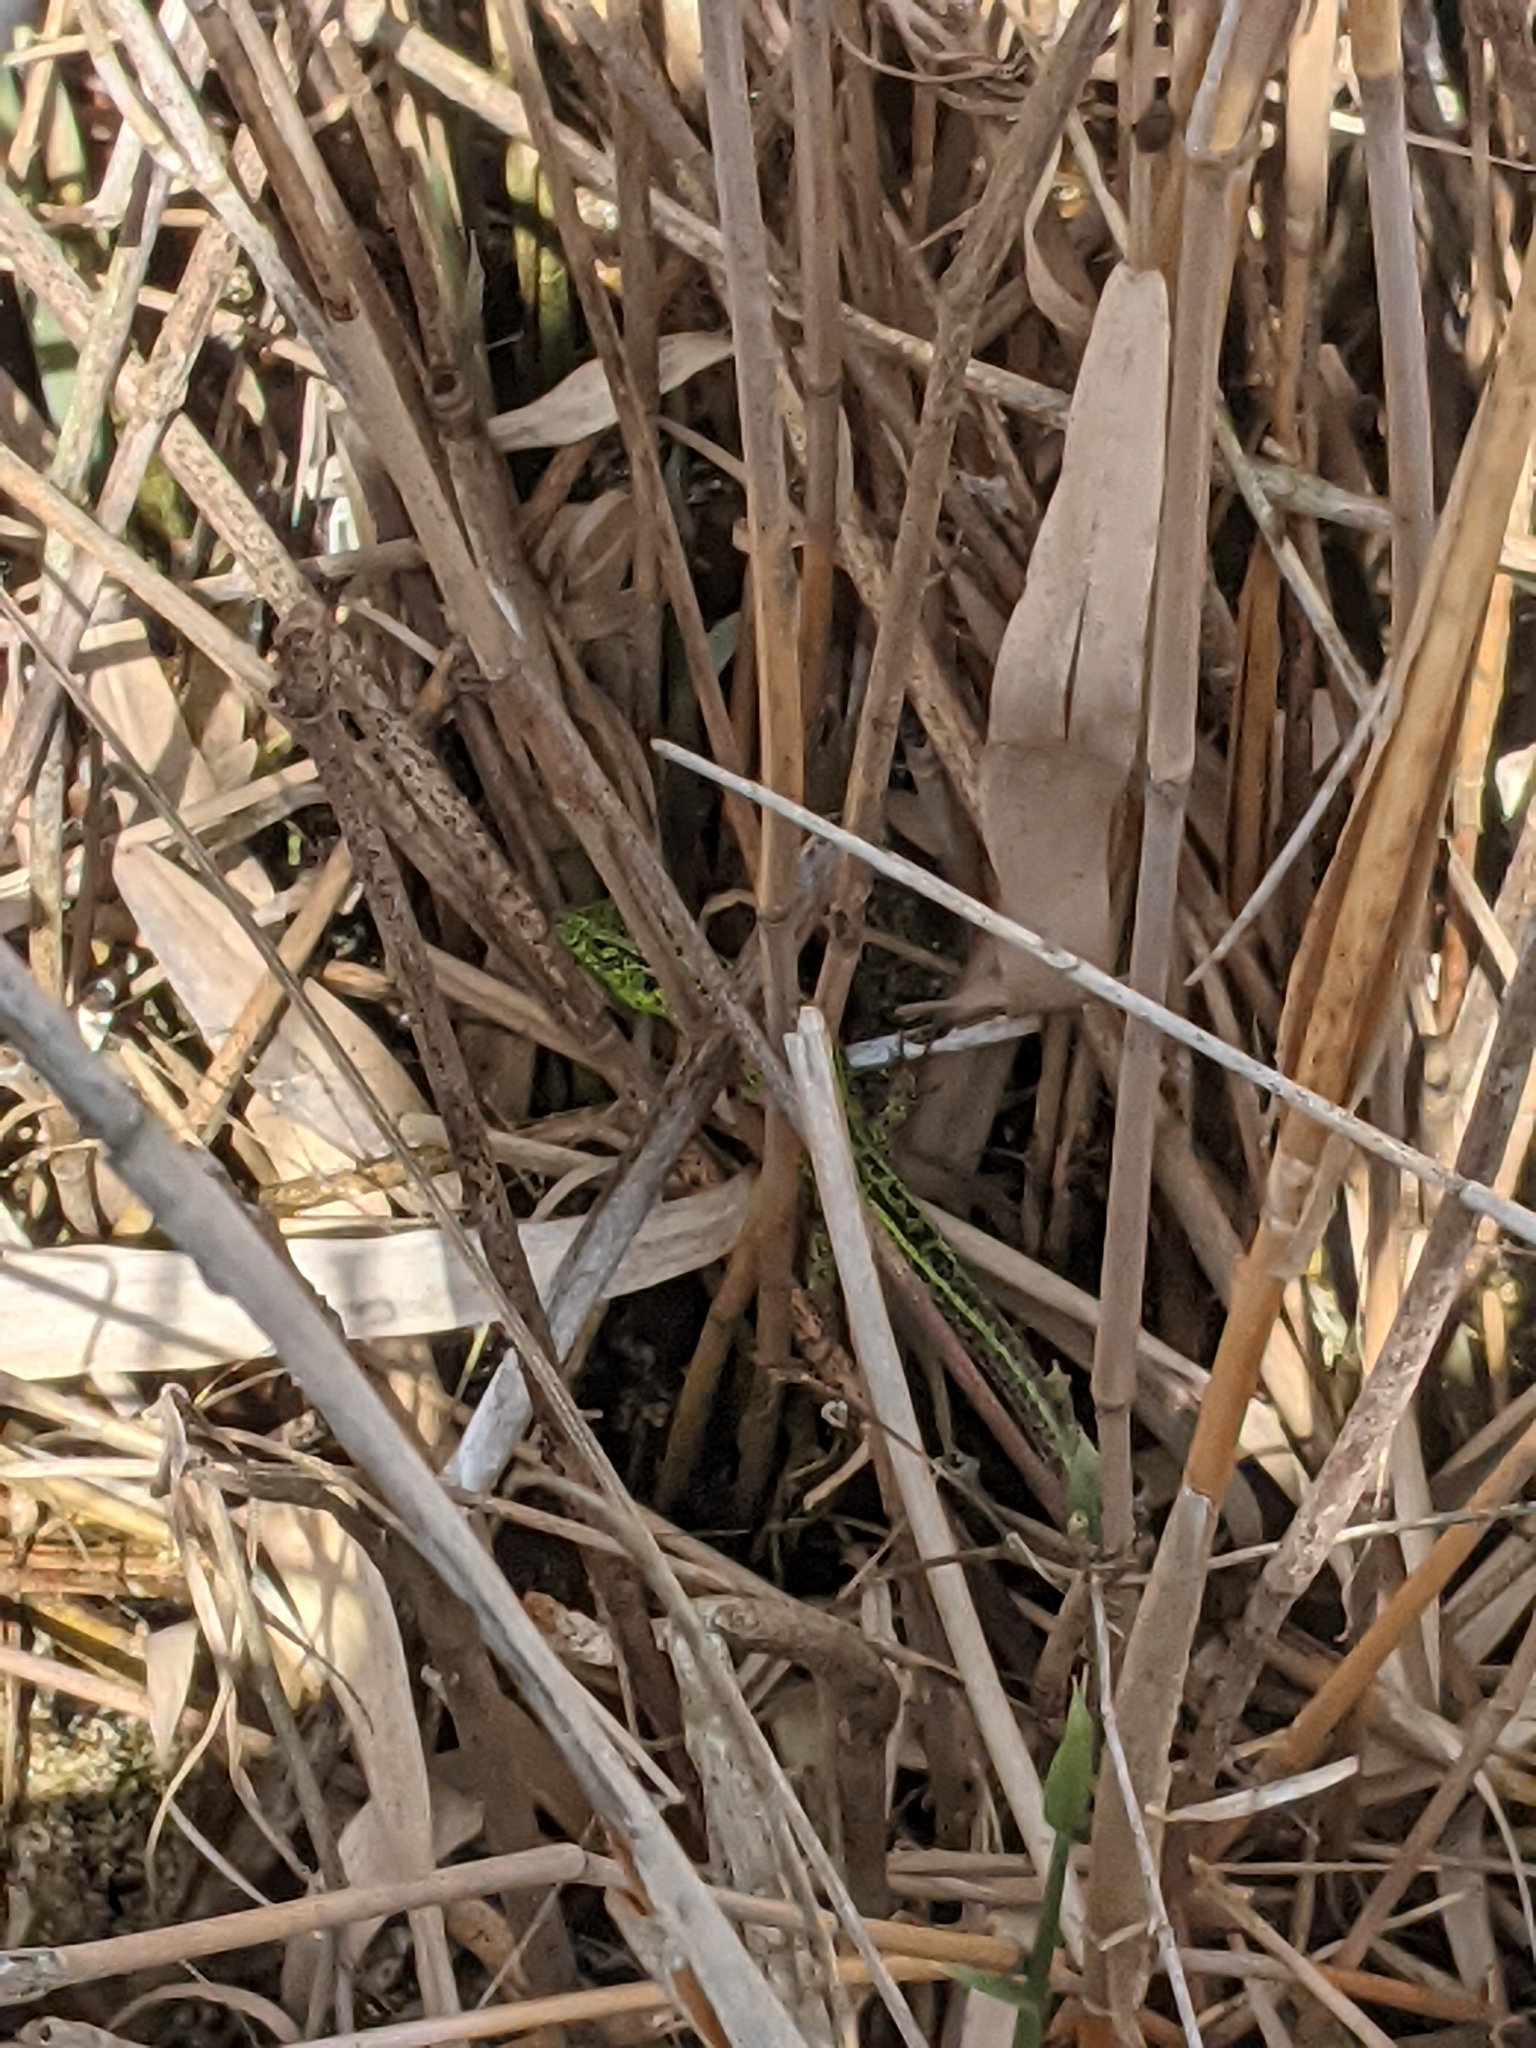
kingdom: Animalia
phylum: Chordata
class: Squamata
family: Lacertidae
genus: Lacerta
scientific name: Lacerta agilis
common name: Sand lizard
